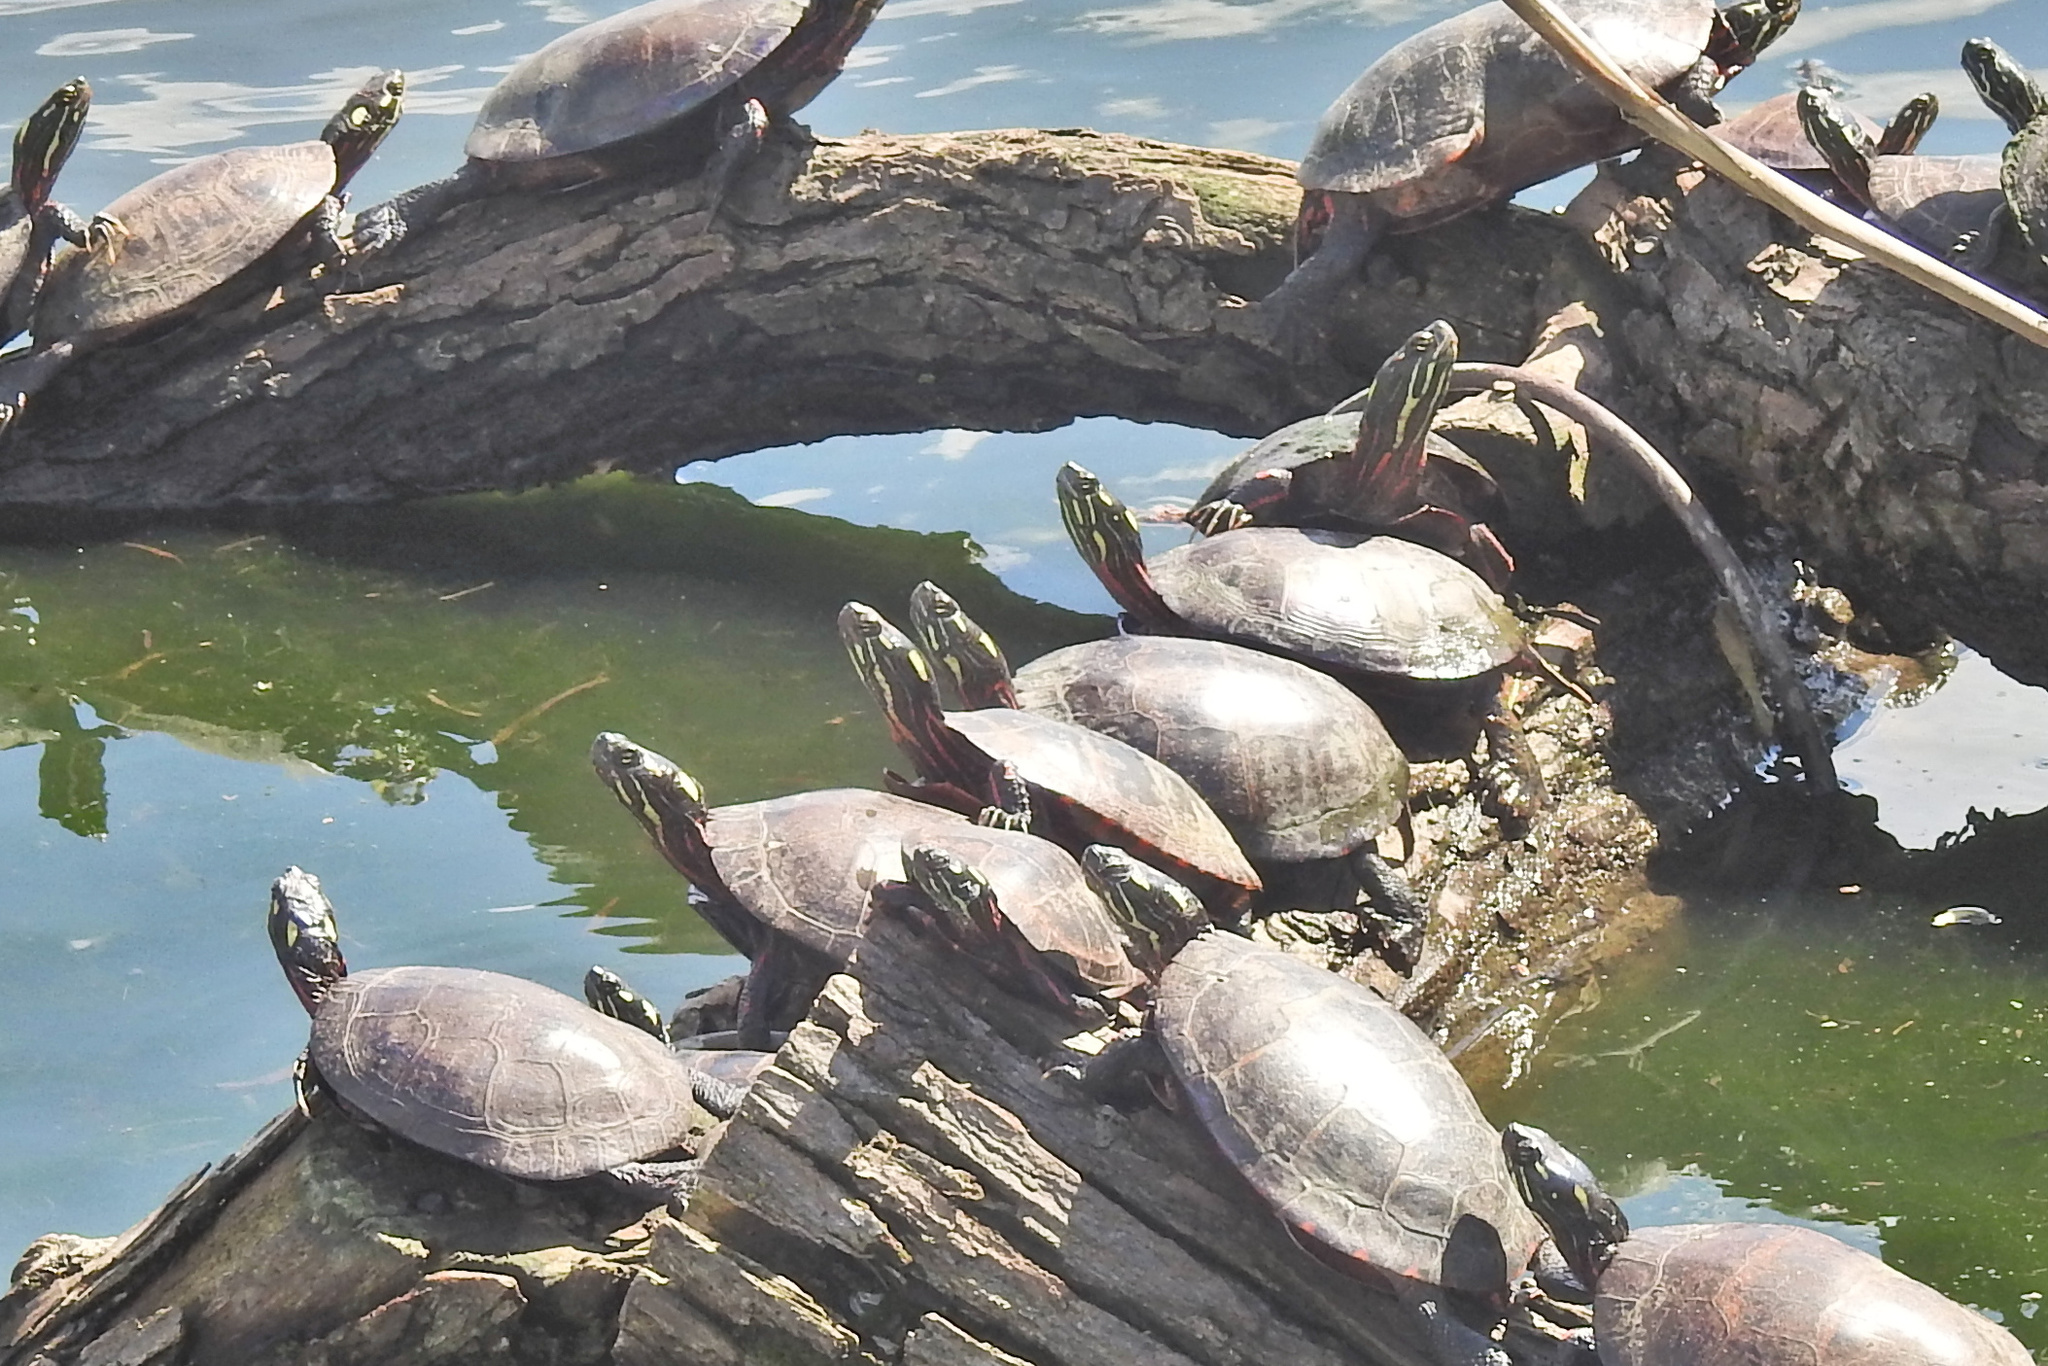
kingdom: Animalia
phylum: Chordata
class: Testudines
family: Emydidae
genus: Chrysemys
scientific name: Chrysemys picta
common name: Painted turtle
